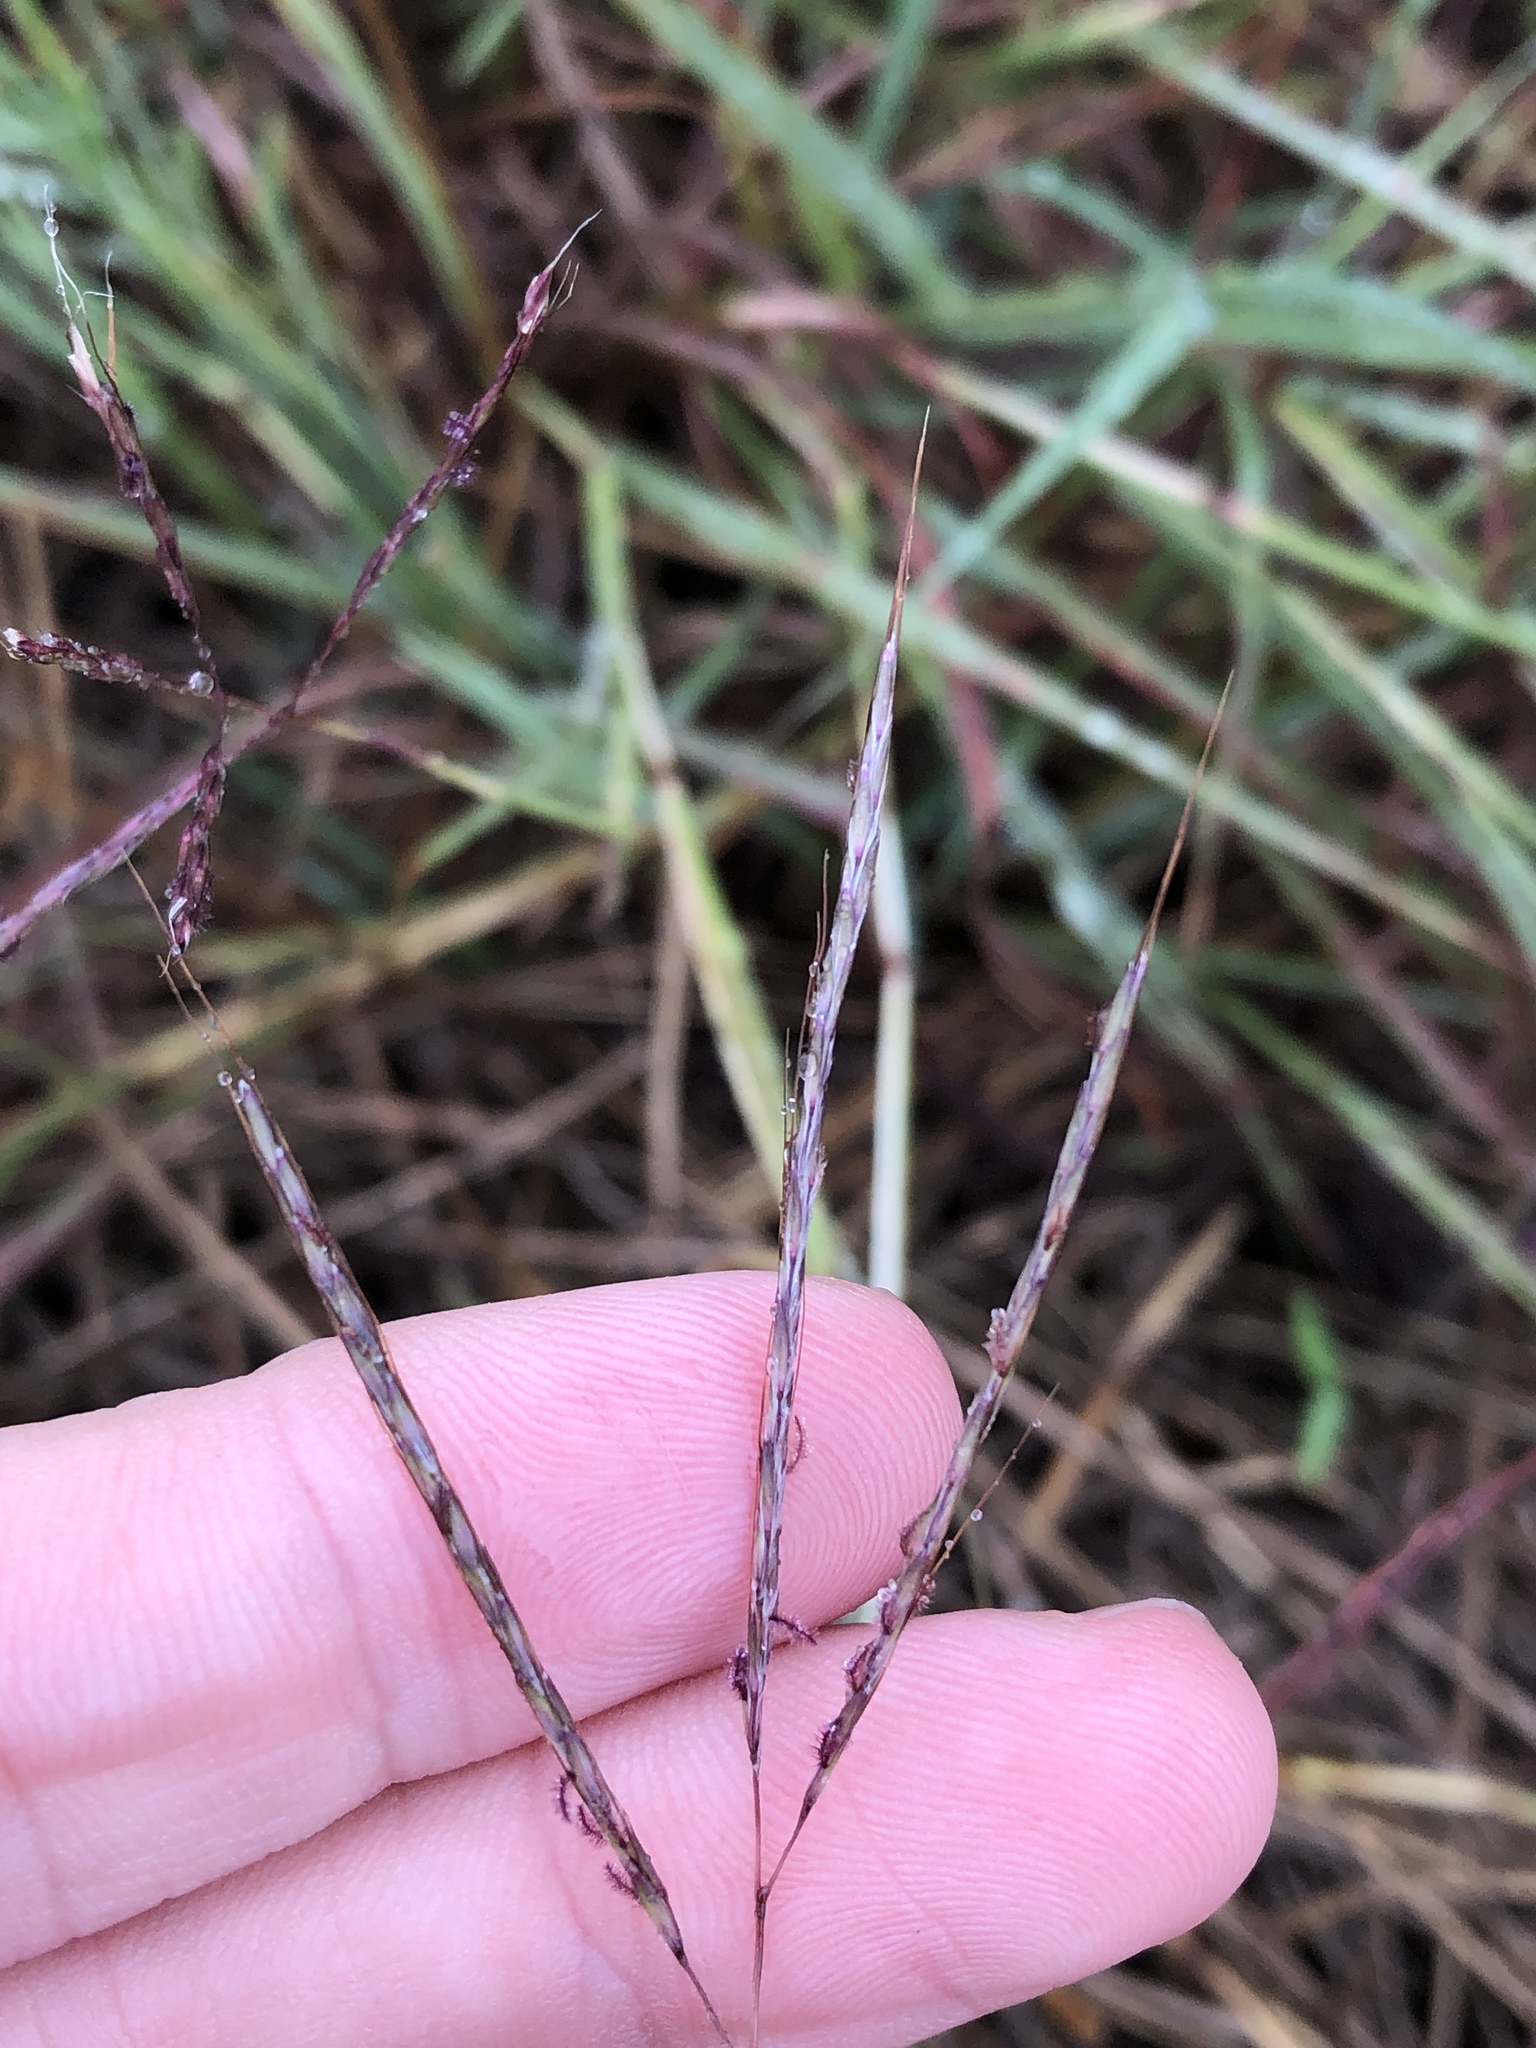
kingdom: Plantae
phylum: Tracheophyta
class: Liliopsida
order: Poales
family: Poaceae
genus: Bothriochloa
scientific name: Bothriochloa ischaemum
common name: Yellow bluestem
